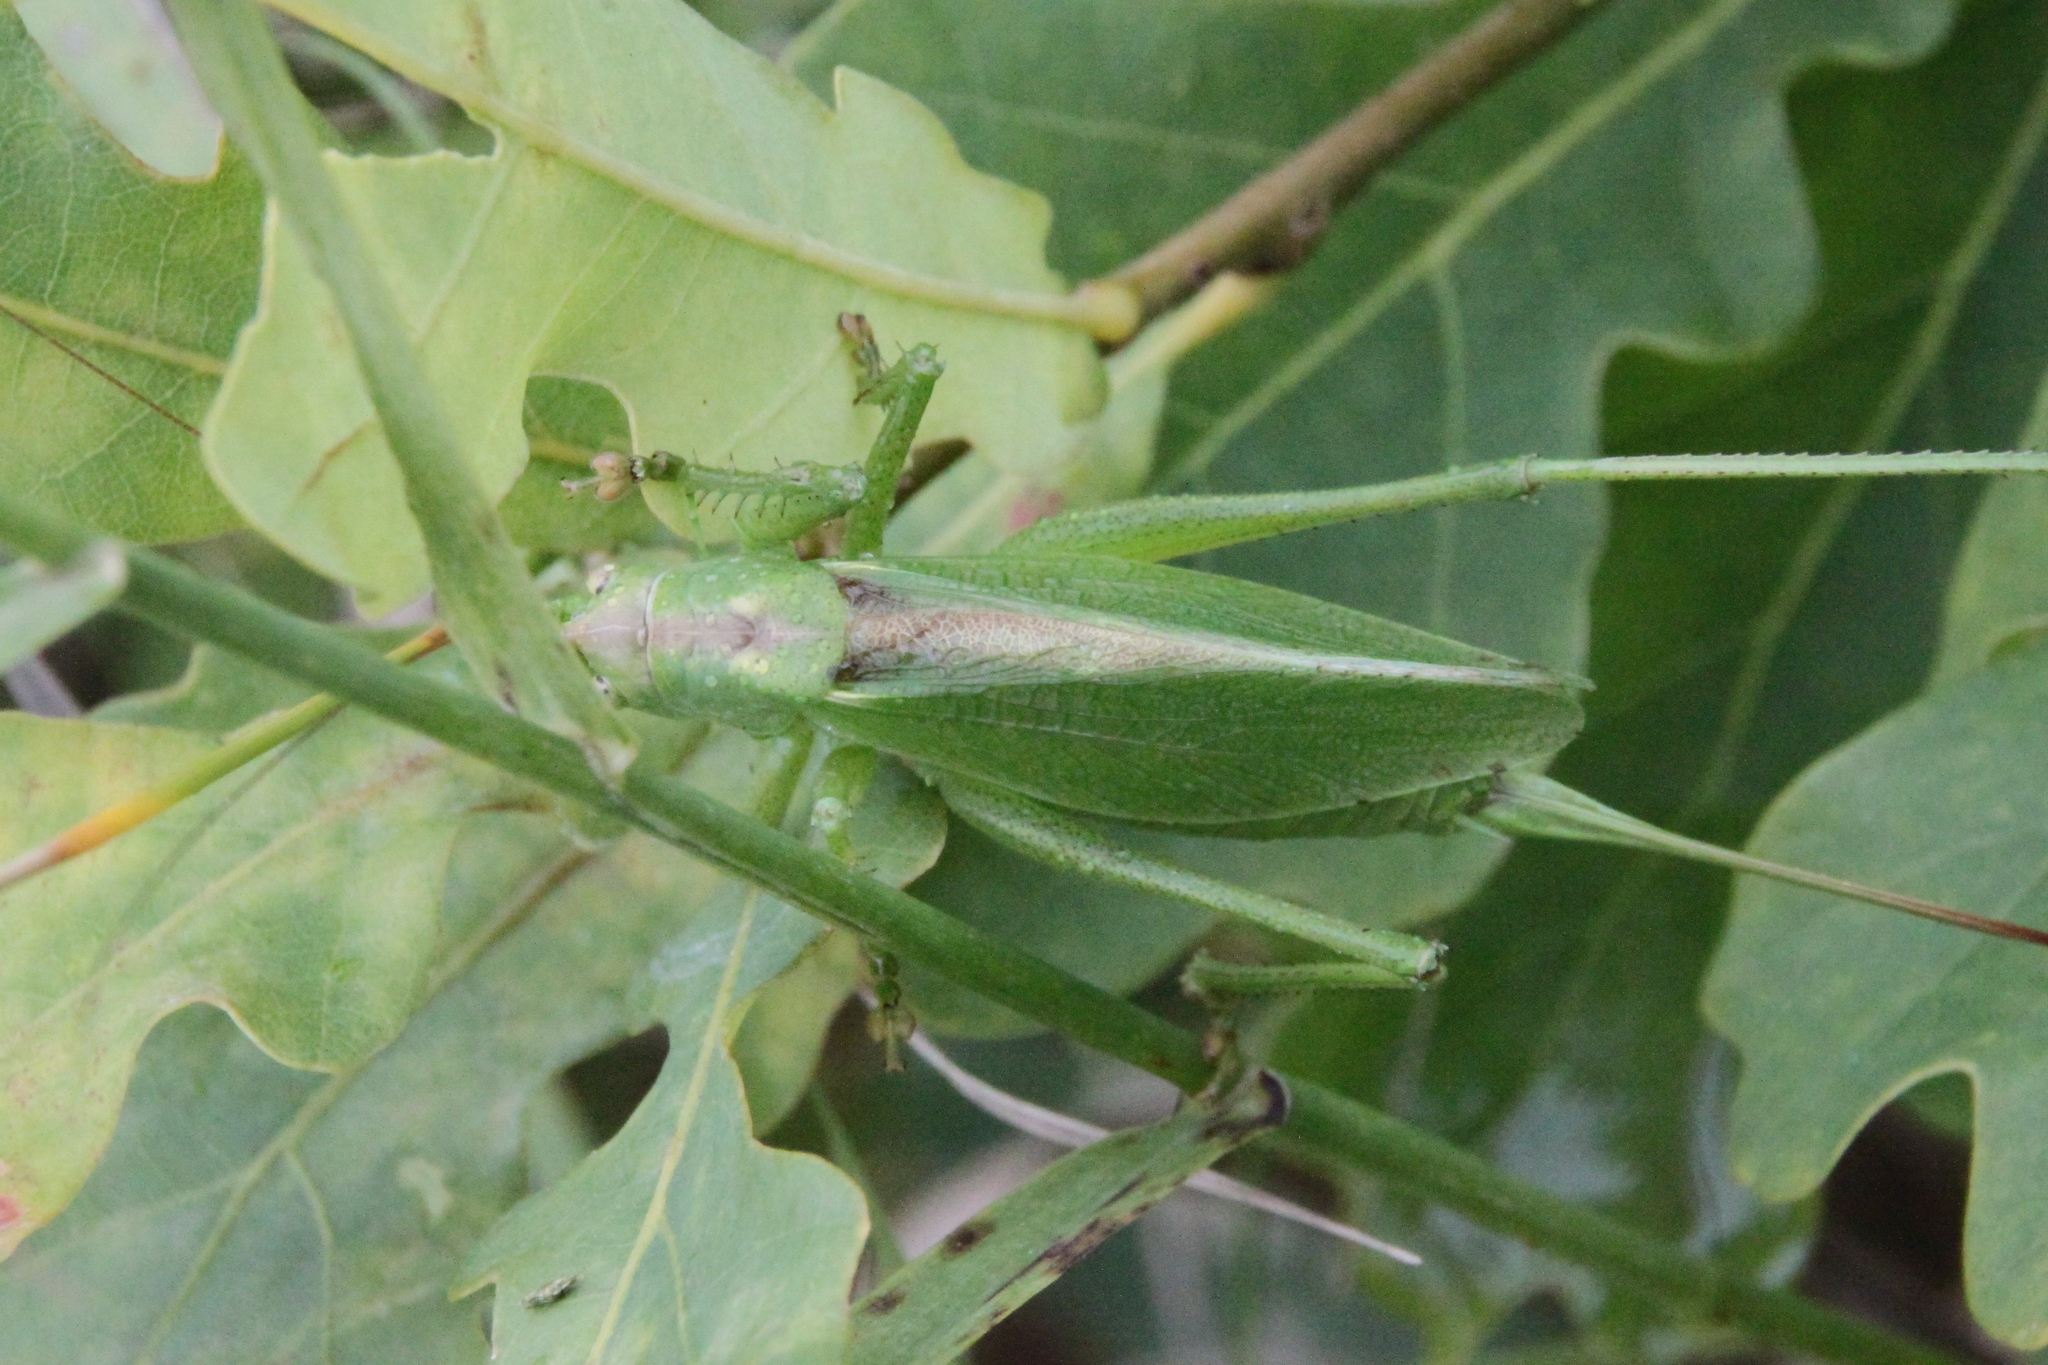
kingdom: Animalia
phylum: Arthropoda
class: Insecta
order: Orthoptera
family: Tettigoniidae
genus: Tettigonia
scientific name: Tettigonia cantans
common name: Upland green bush-cricket
